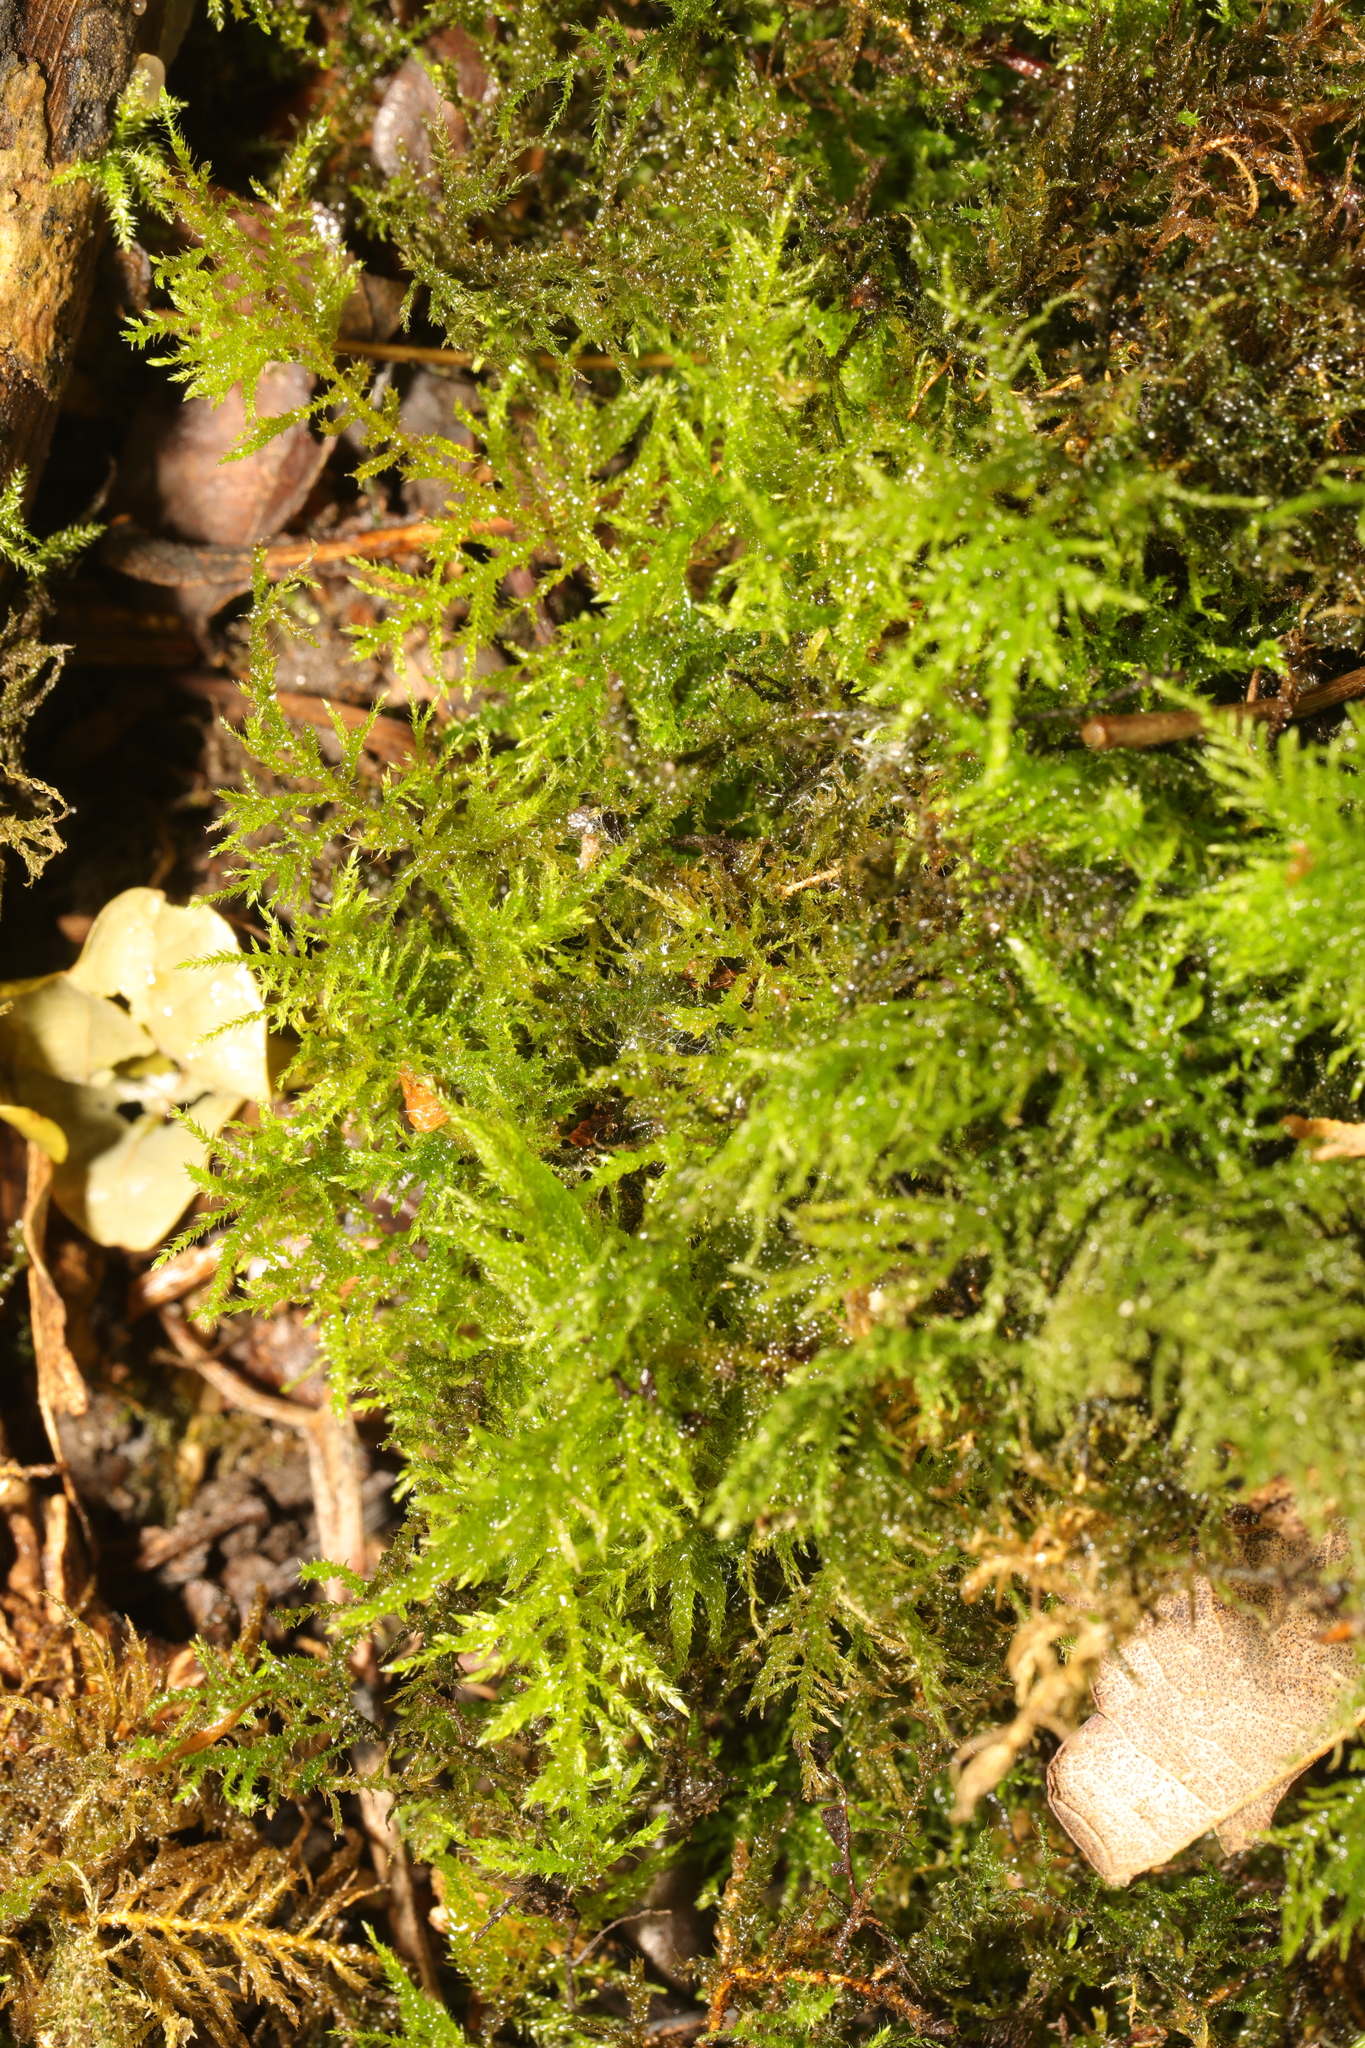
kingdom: Plantae
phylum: Bryophyta
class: Bryopsida
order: Hypnales
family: Brachytheciaceae
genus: Kindbergia
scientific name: Kindbergia praelonga
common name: Slender beaked moss
